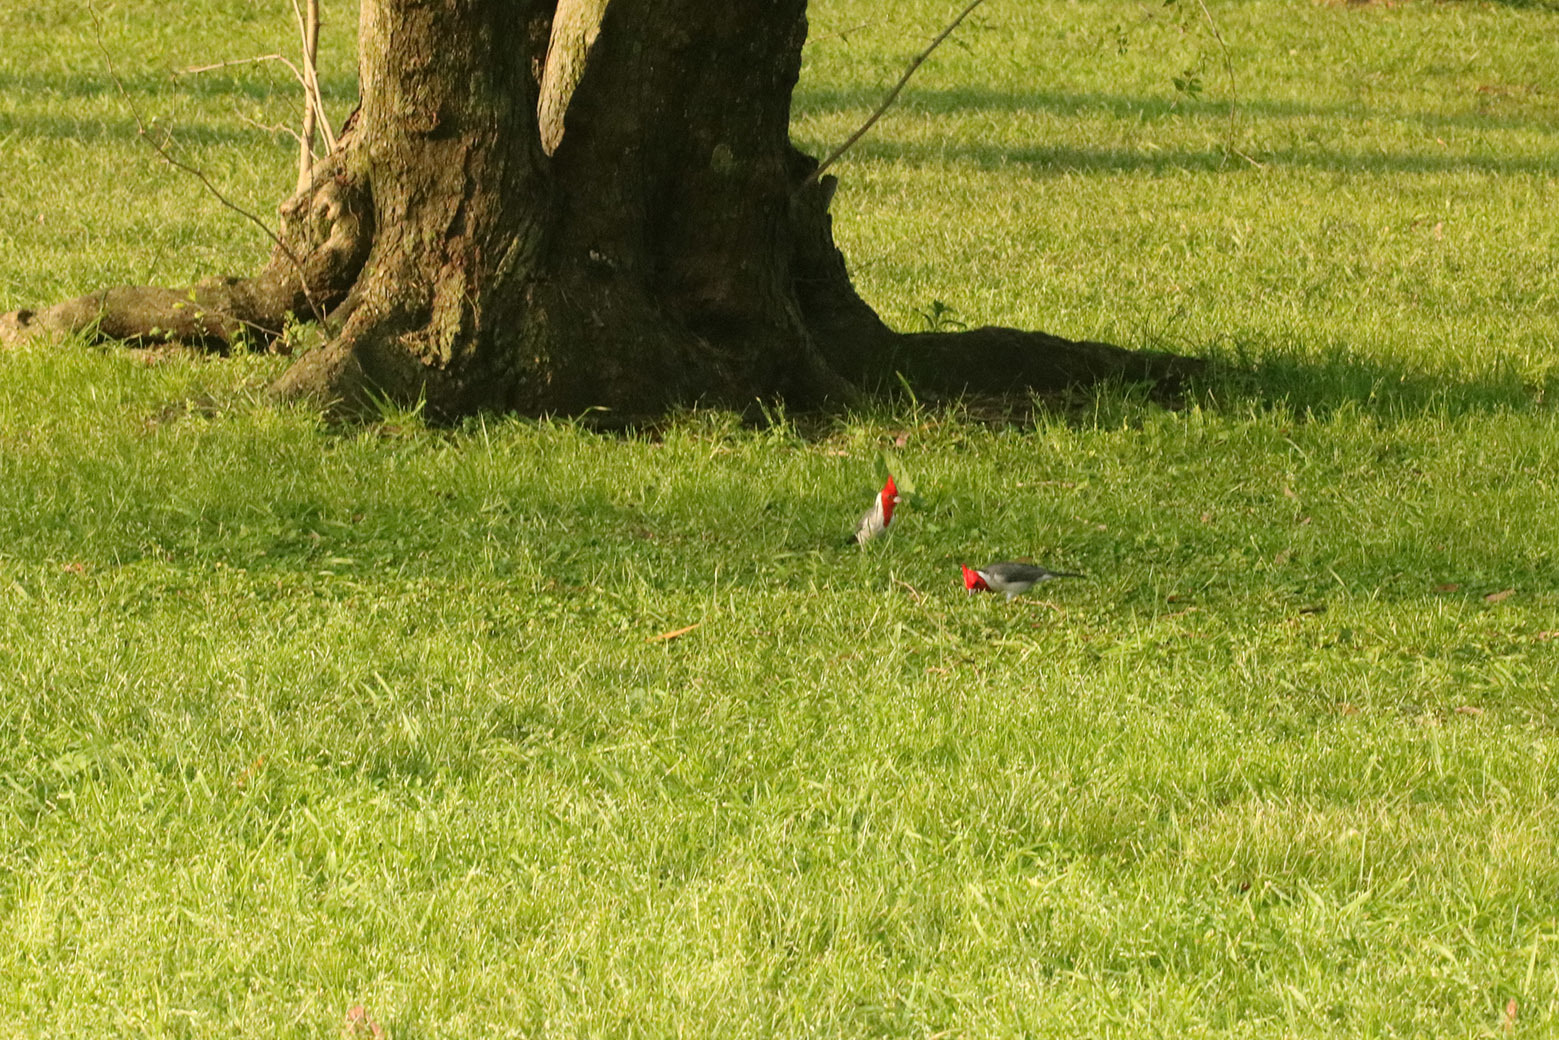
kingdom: Animalia
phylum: Chordata
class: Aves
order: Passeriformes
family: Thraupidae
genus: Paroaria
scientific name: Paroaria coronata
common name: Red-crested cardinal
